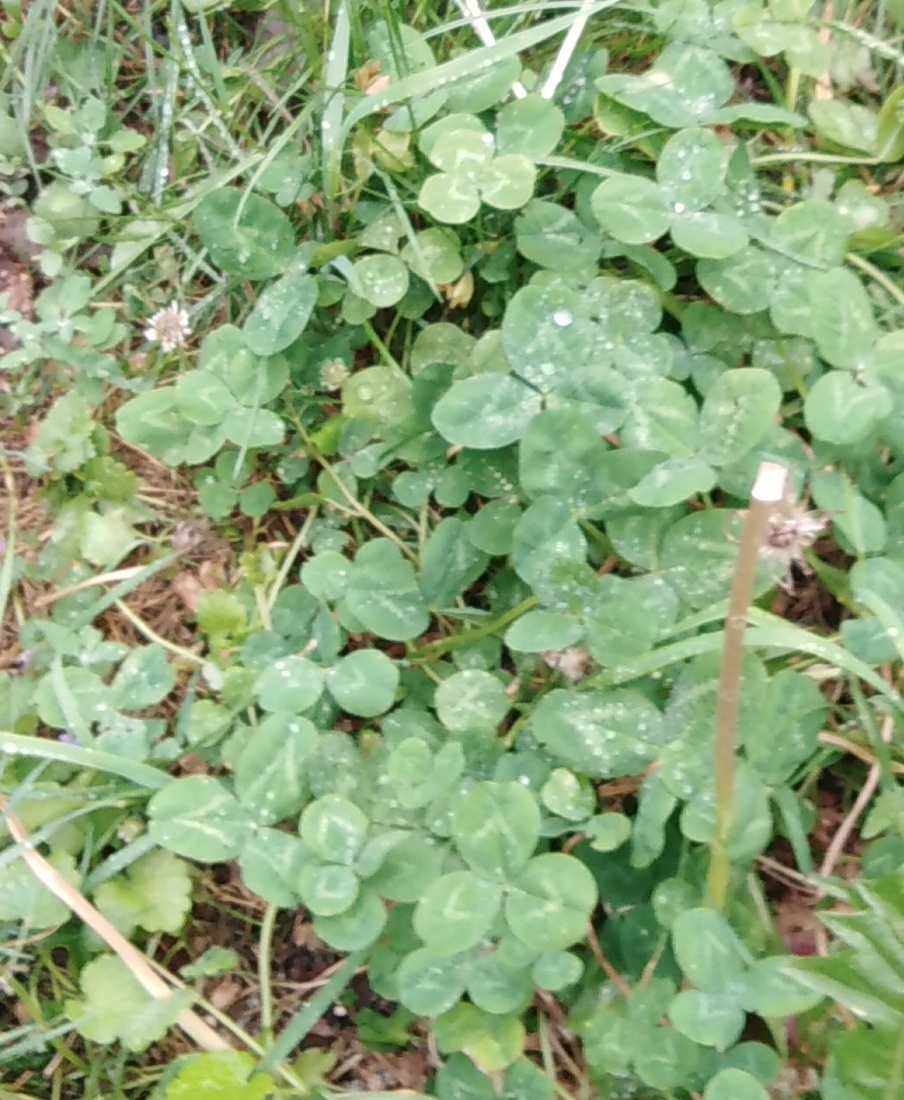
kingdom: Plantae
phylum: Tracheophyta
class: Magnoliopsida
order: Fabales
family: Fabaceae
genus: Trifolium
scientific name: Trifolium repens
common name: White clover
